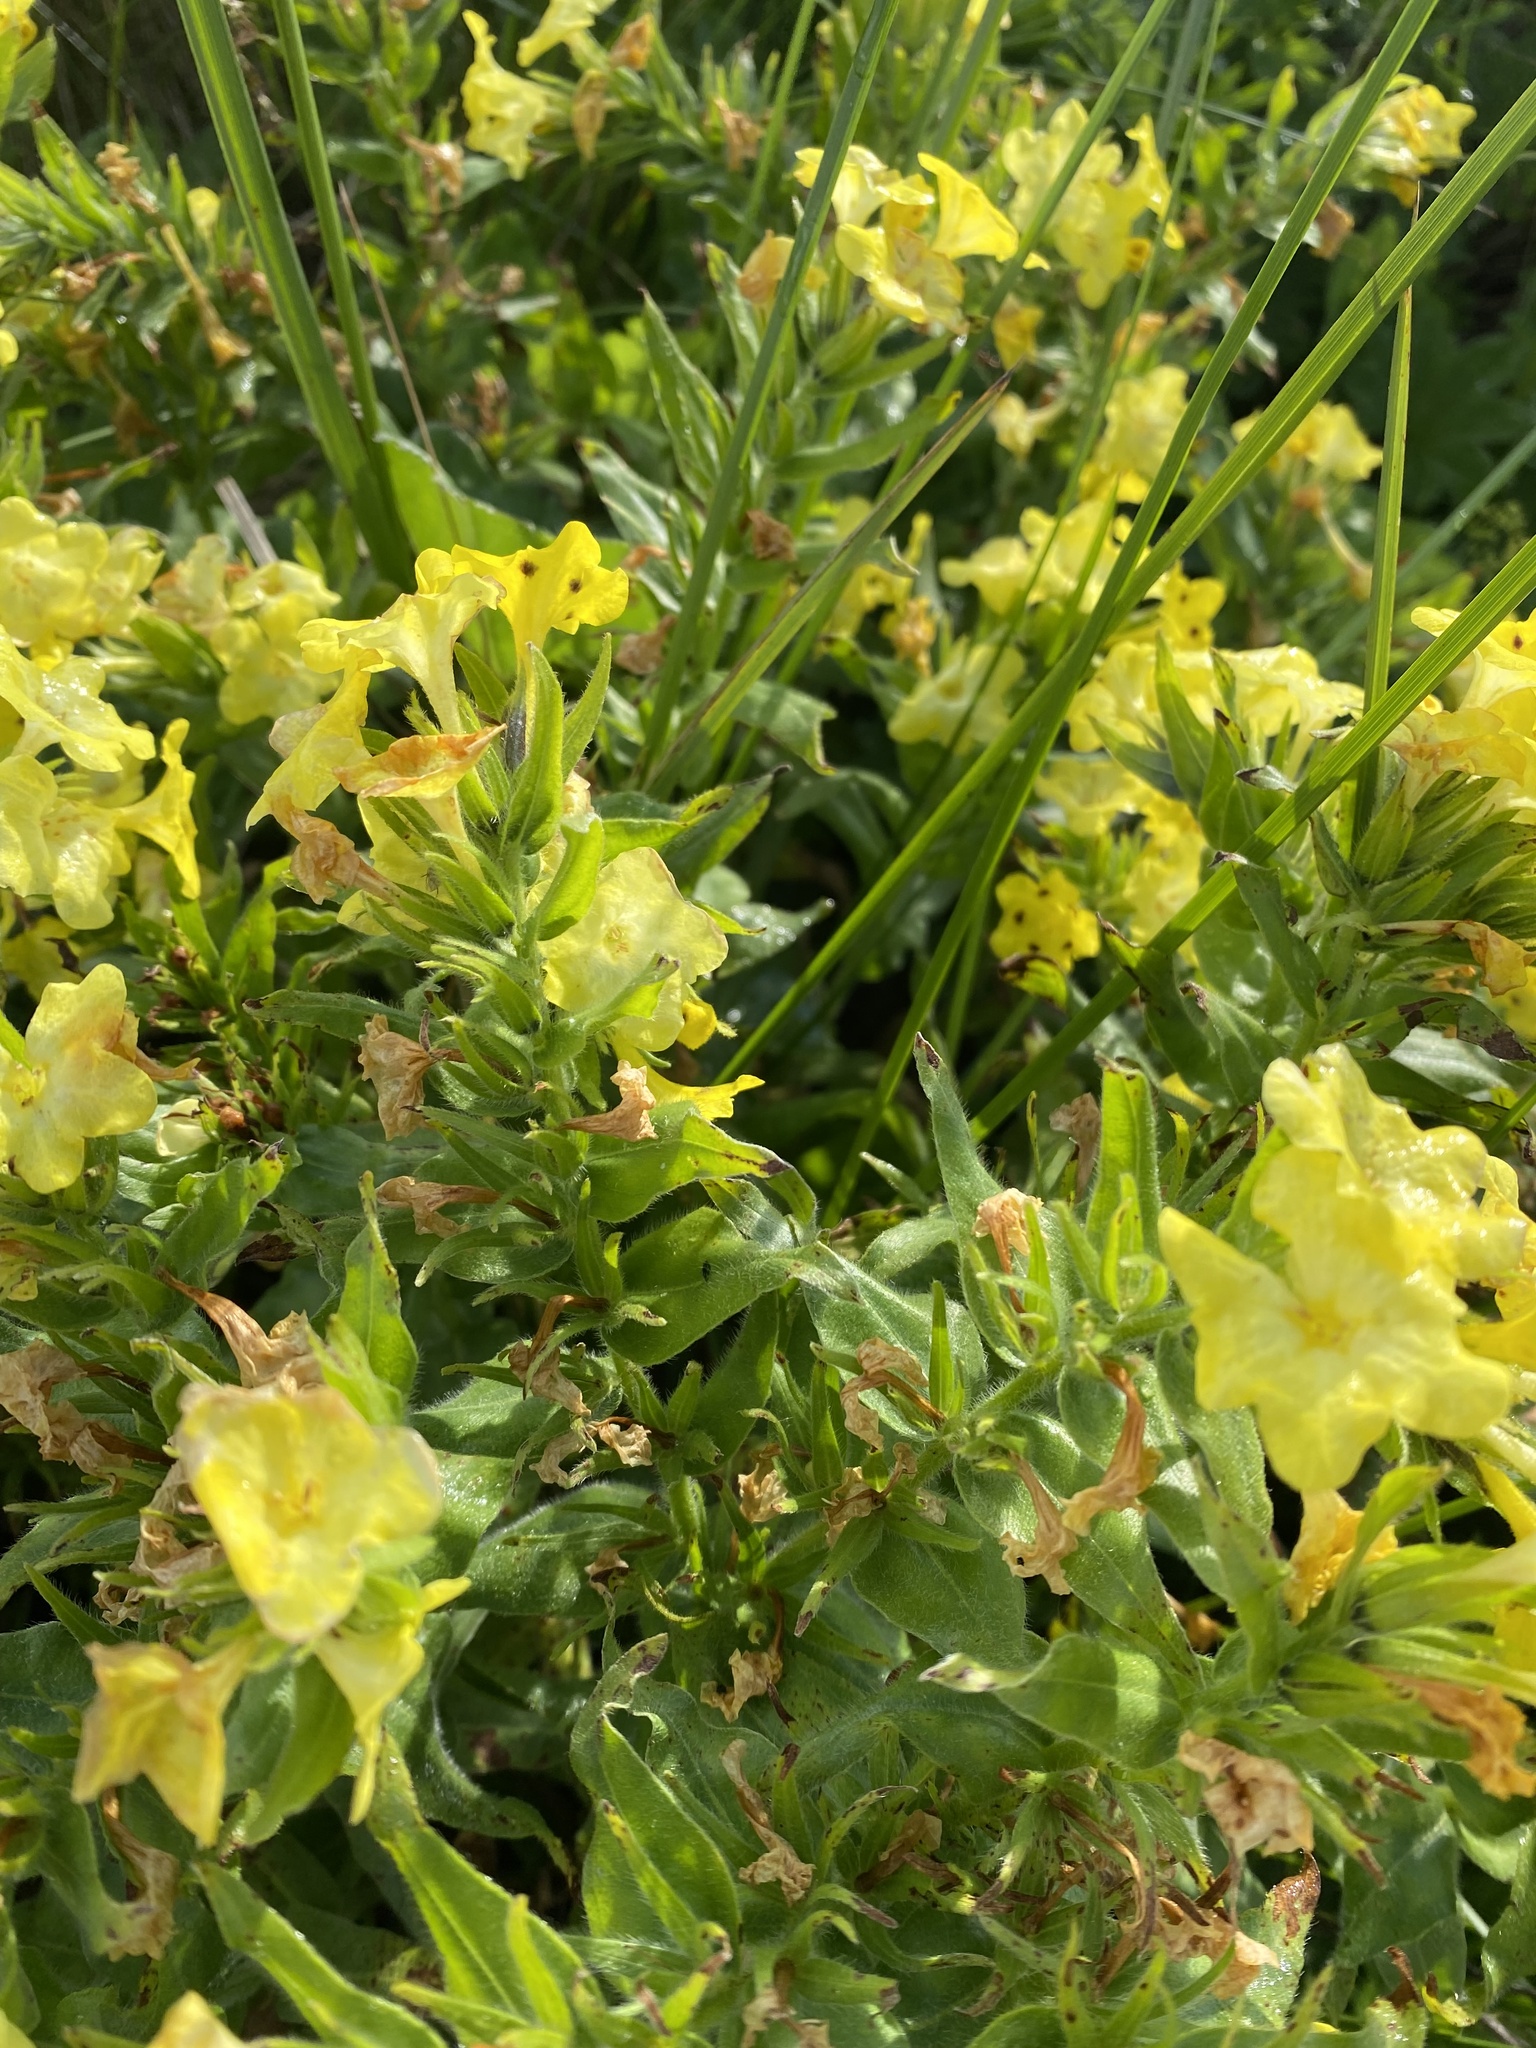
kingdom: Plantae
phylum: Tracheophyta
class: Magnoliopsida
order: Boraginales
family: Boraginaceae
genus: Huynhia
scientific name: Huynhia pulchra
